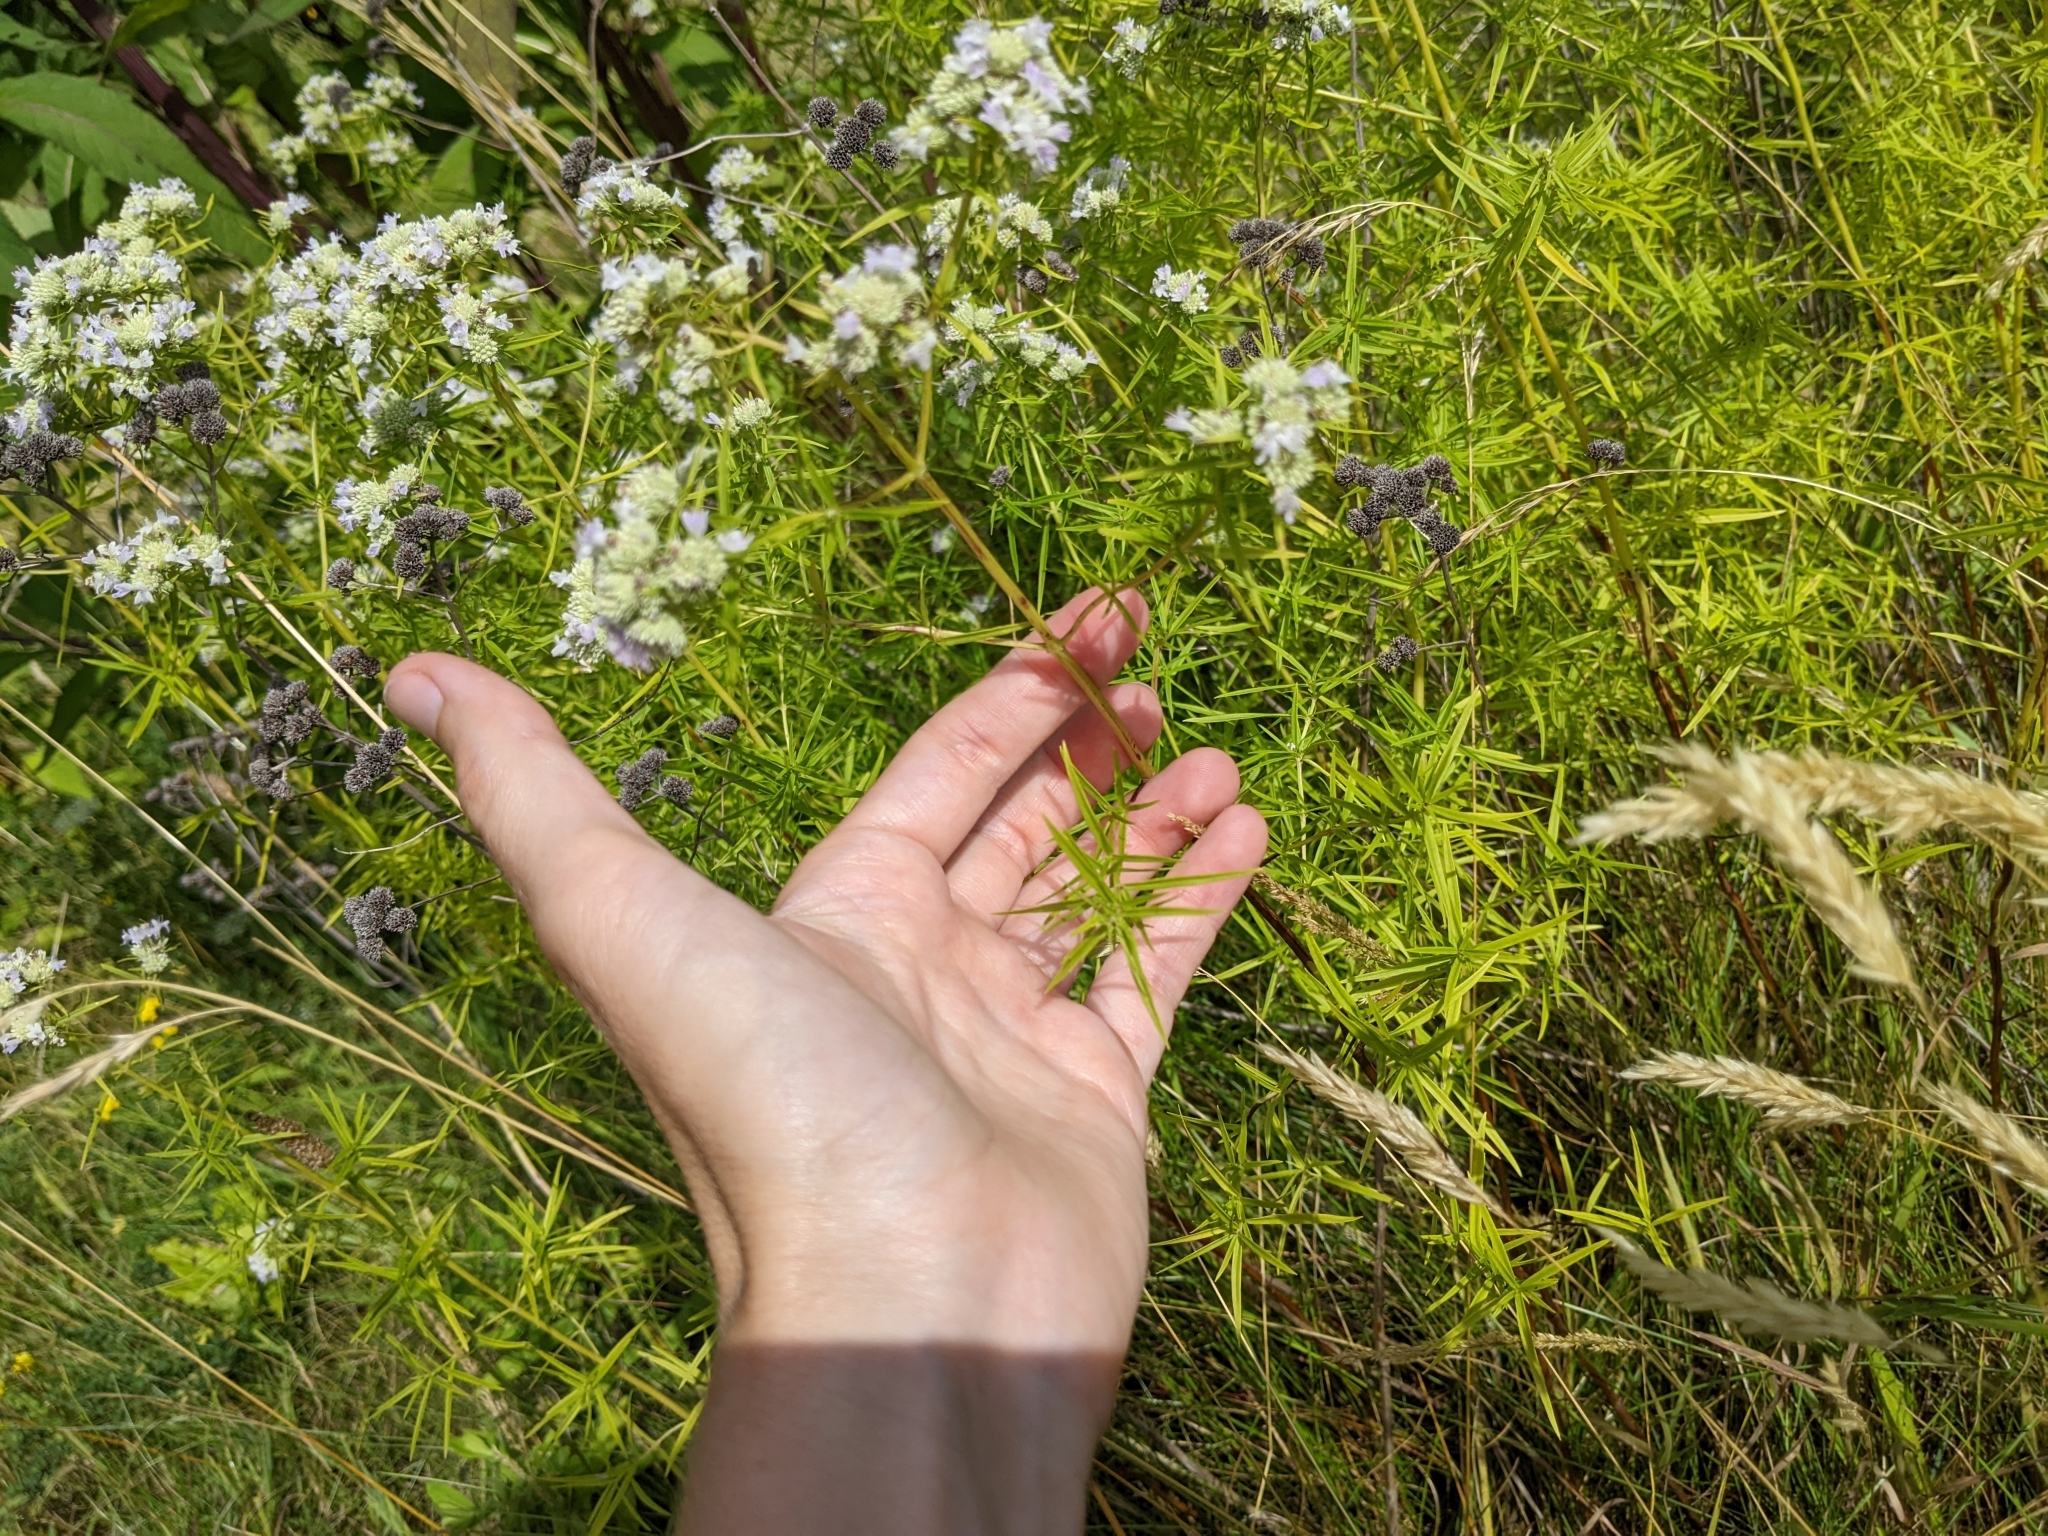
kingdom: Plantae
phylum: Tracheophyta
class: Magnoliopsida
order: Lamiales
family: Lamiaceae
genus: Pycnanthemum
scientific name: Pycnanthemum tenuifolium
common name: Narrow-leaf mountain-mint
